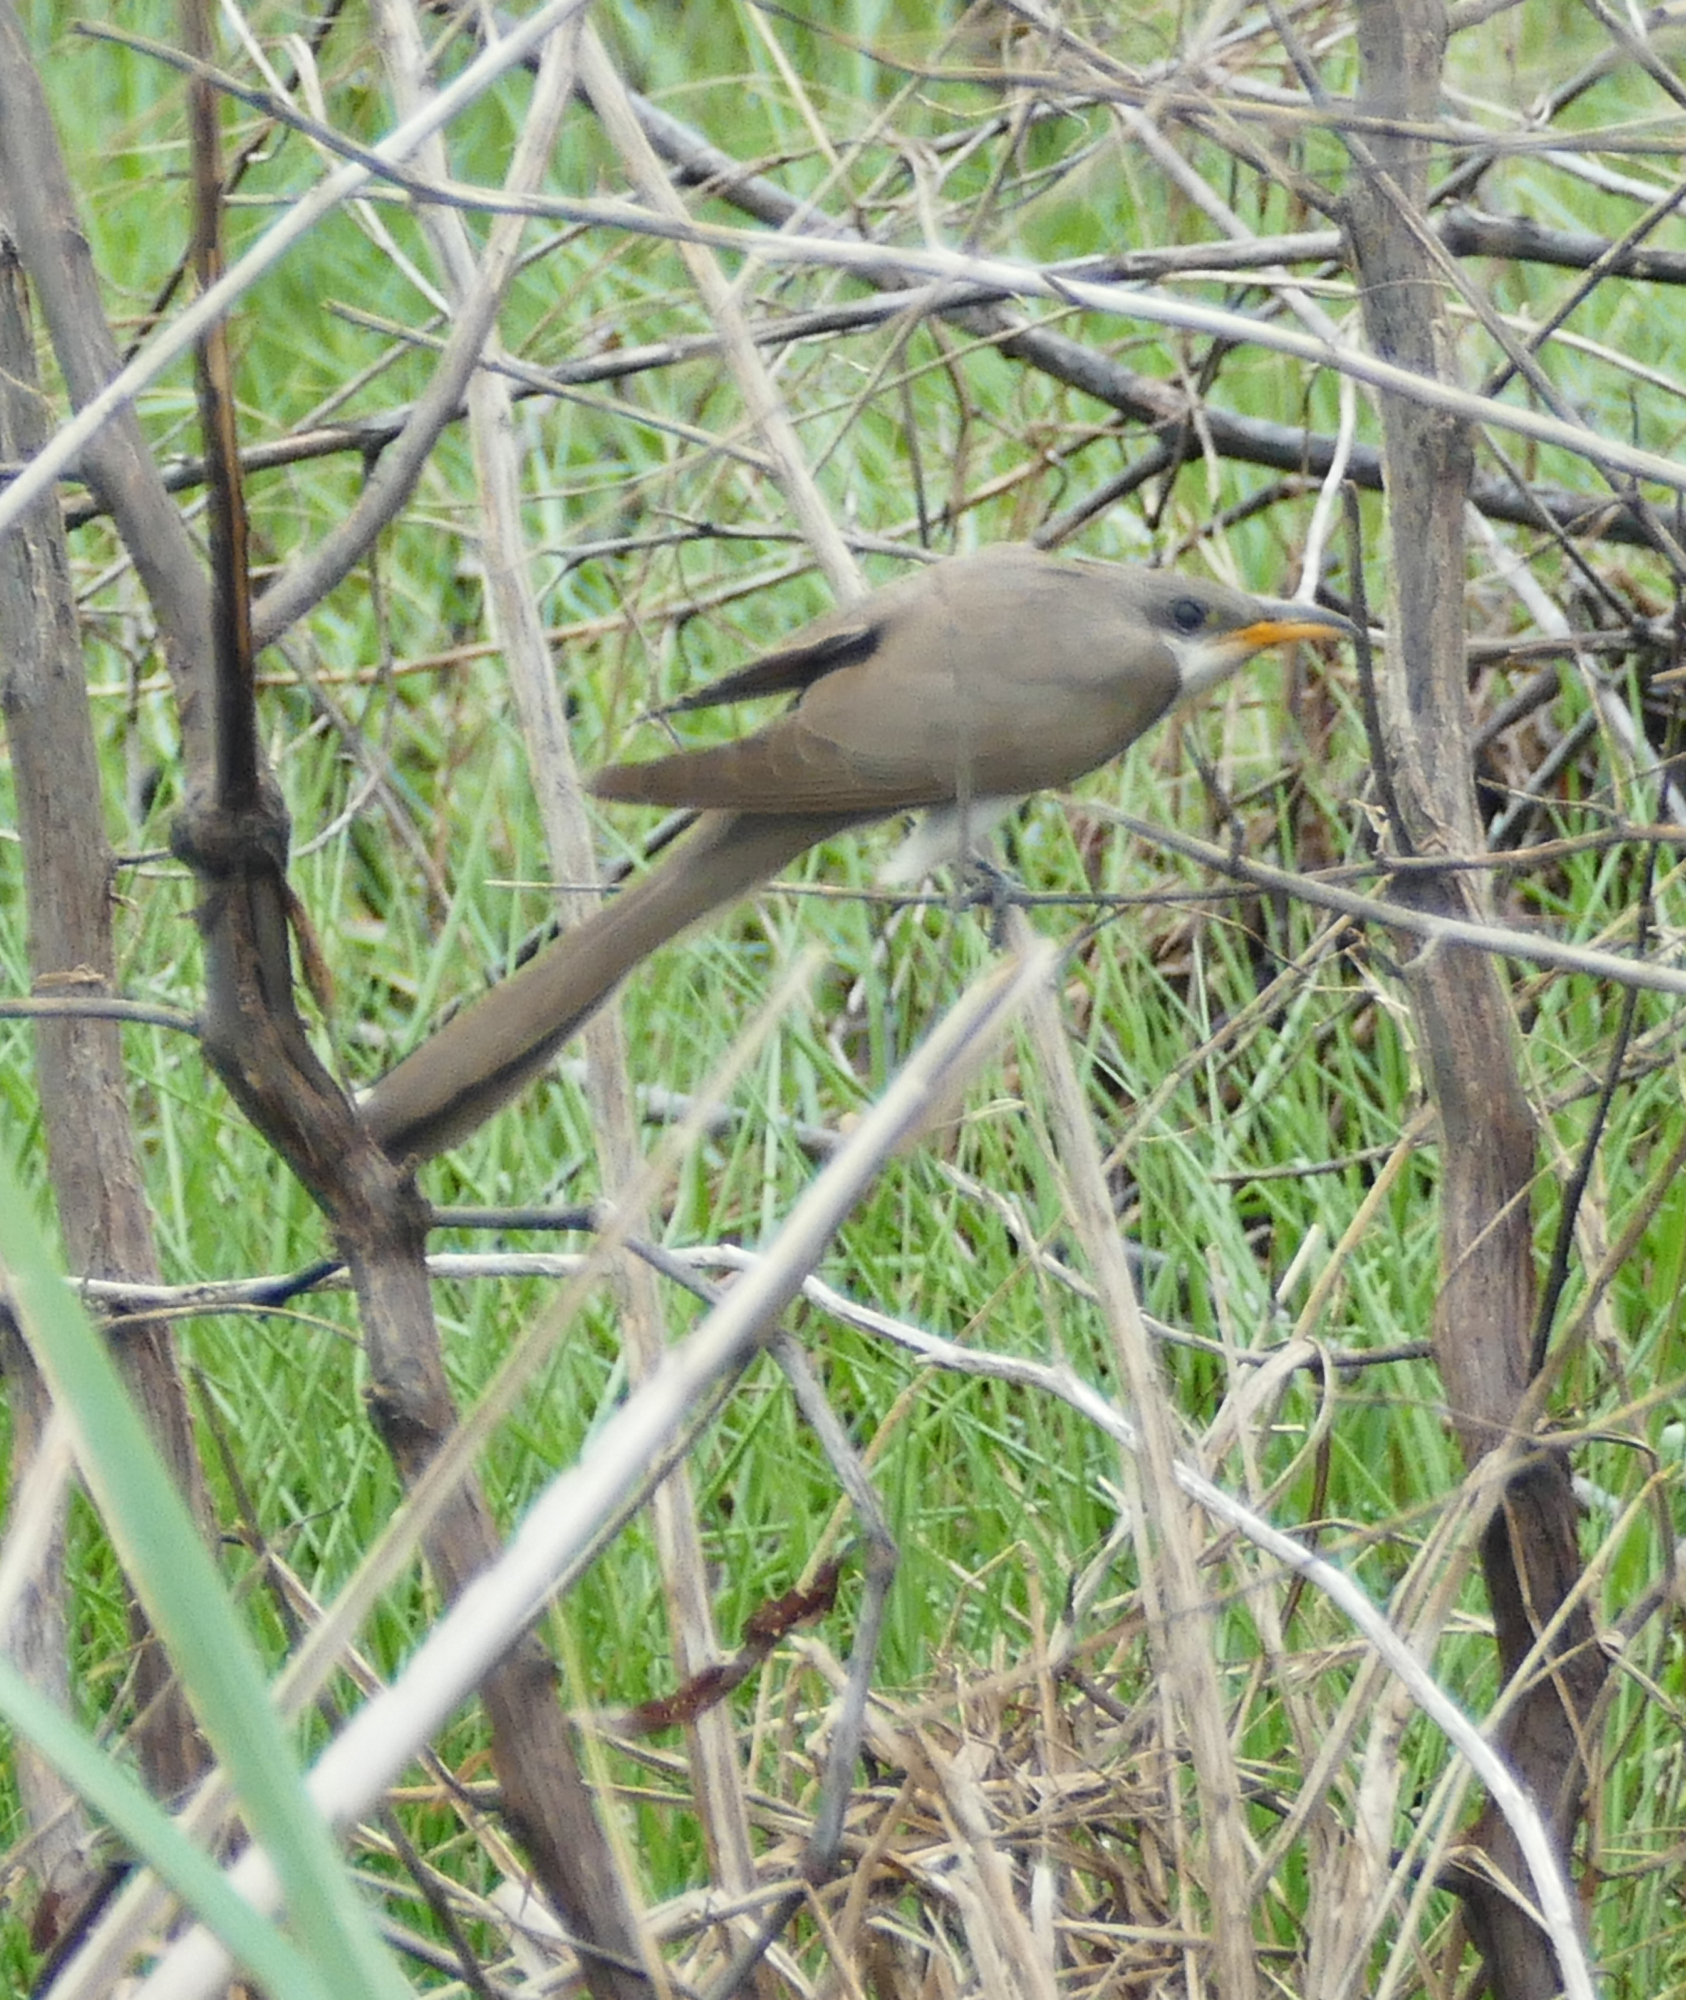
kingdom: Animalia
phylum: Chordata
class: Aves
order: Cuculiformes
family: Cuculidae
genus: Coccyzus
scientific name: Coccyzus americanus
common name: Yellow-billed cuckoo
